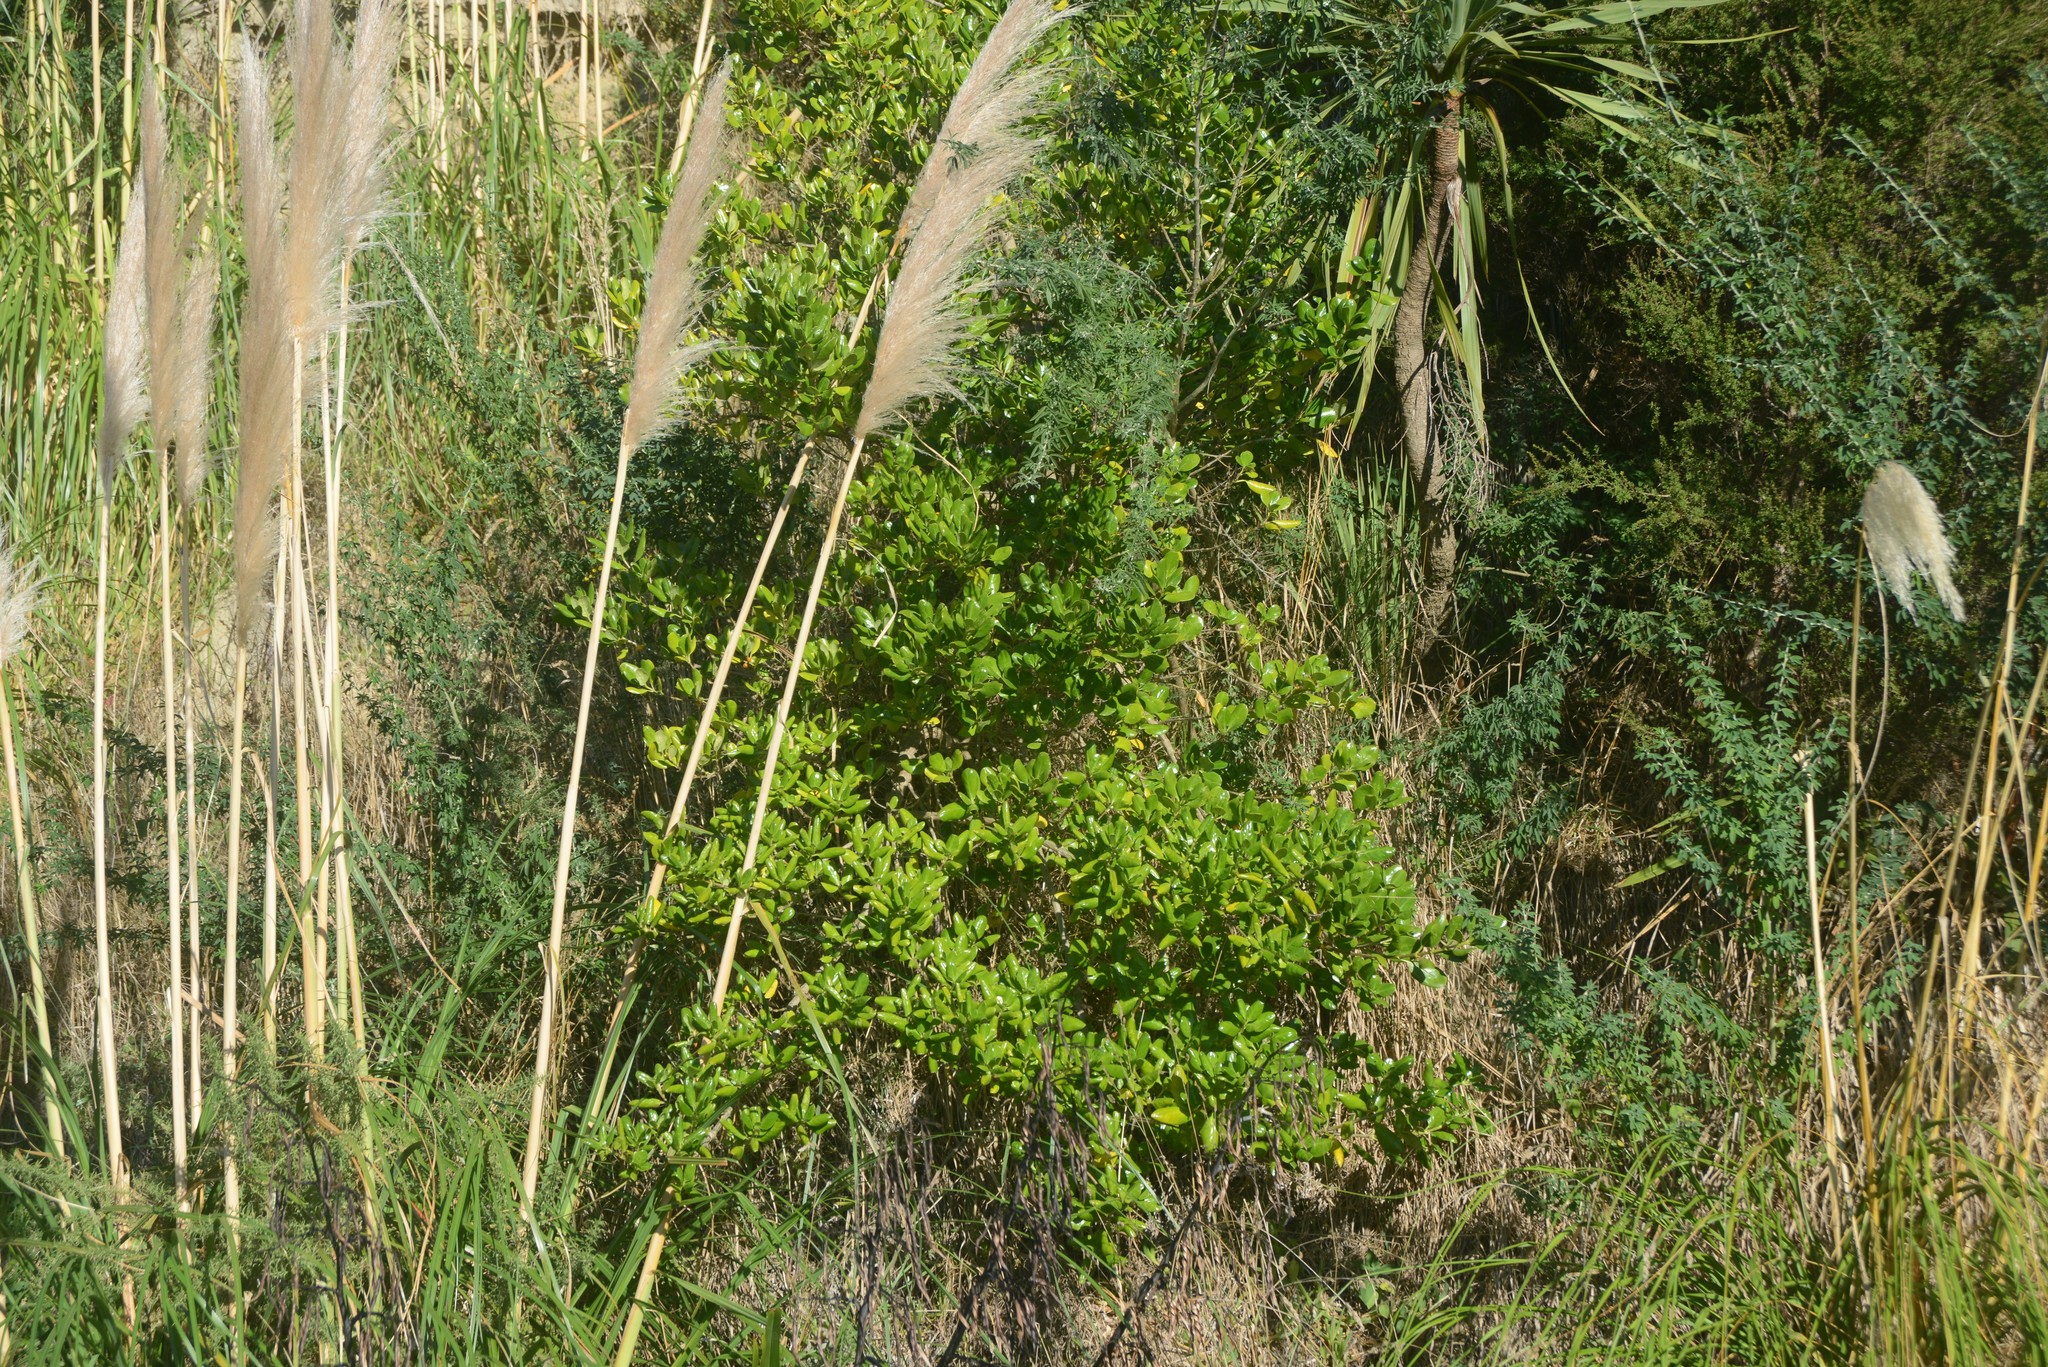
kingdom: Plantae
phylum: Tracheophyta
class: Magnoliopsida
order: Gentianales
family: Rubiaceae
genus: Coprosma
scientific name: Coprosma repens
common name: Tree bedstraw
